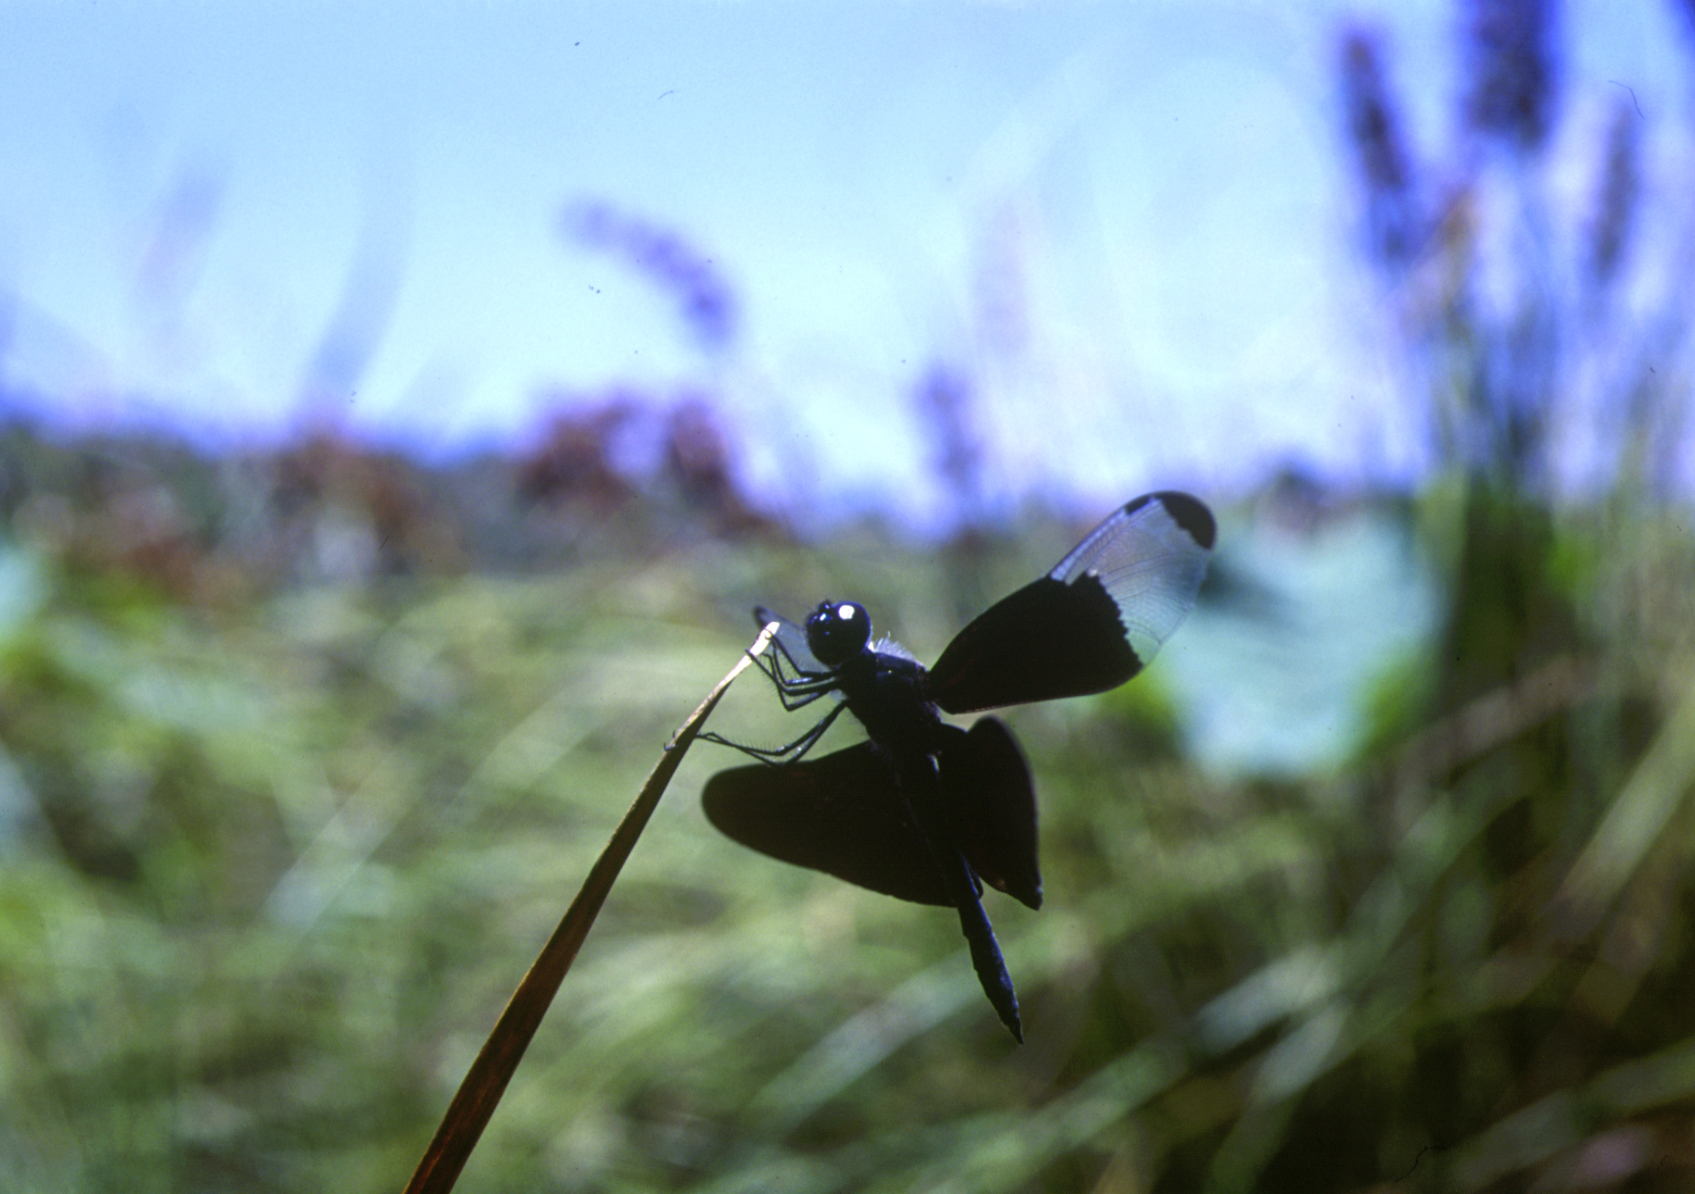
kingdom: Animalia
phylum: Arthropoda
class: Insecta
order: Odonata
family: Libellulidae
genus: Rhyothemis
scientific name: Rhyothemis fuliginosa
